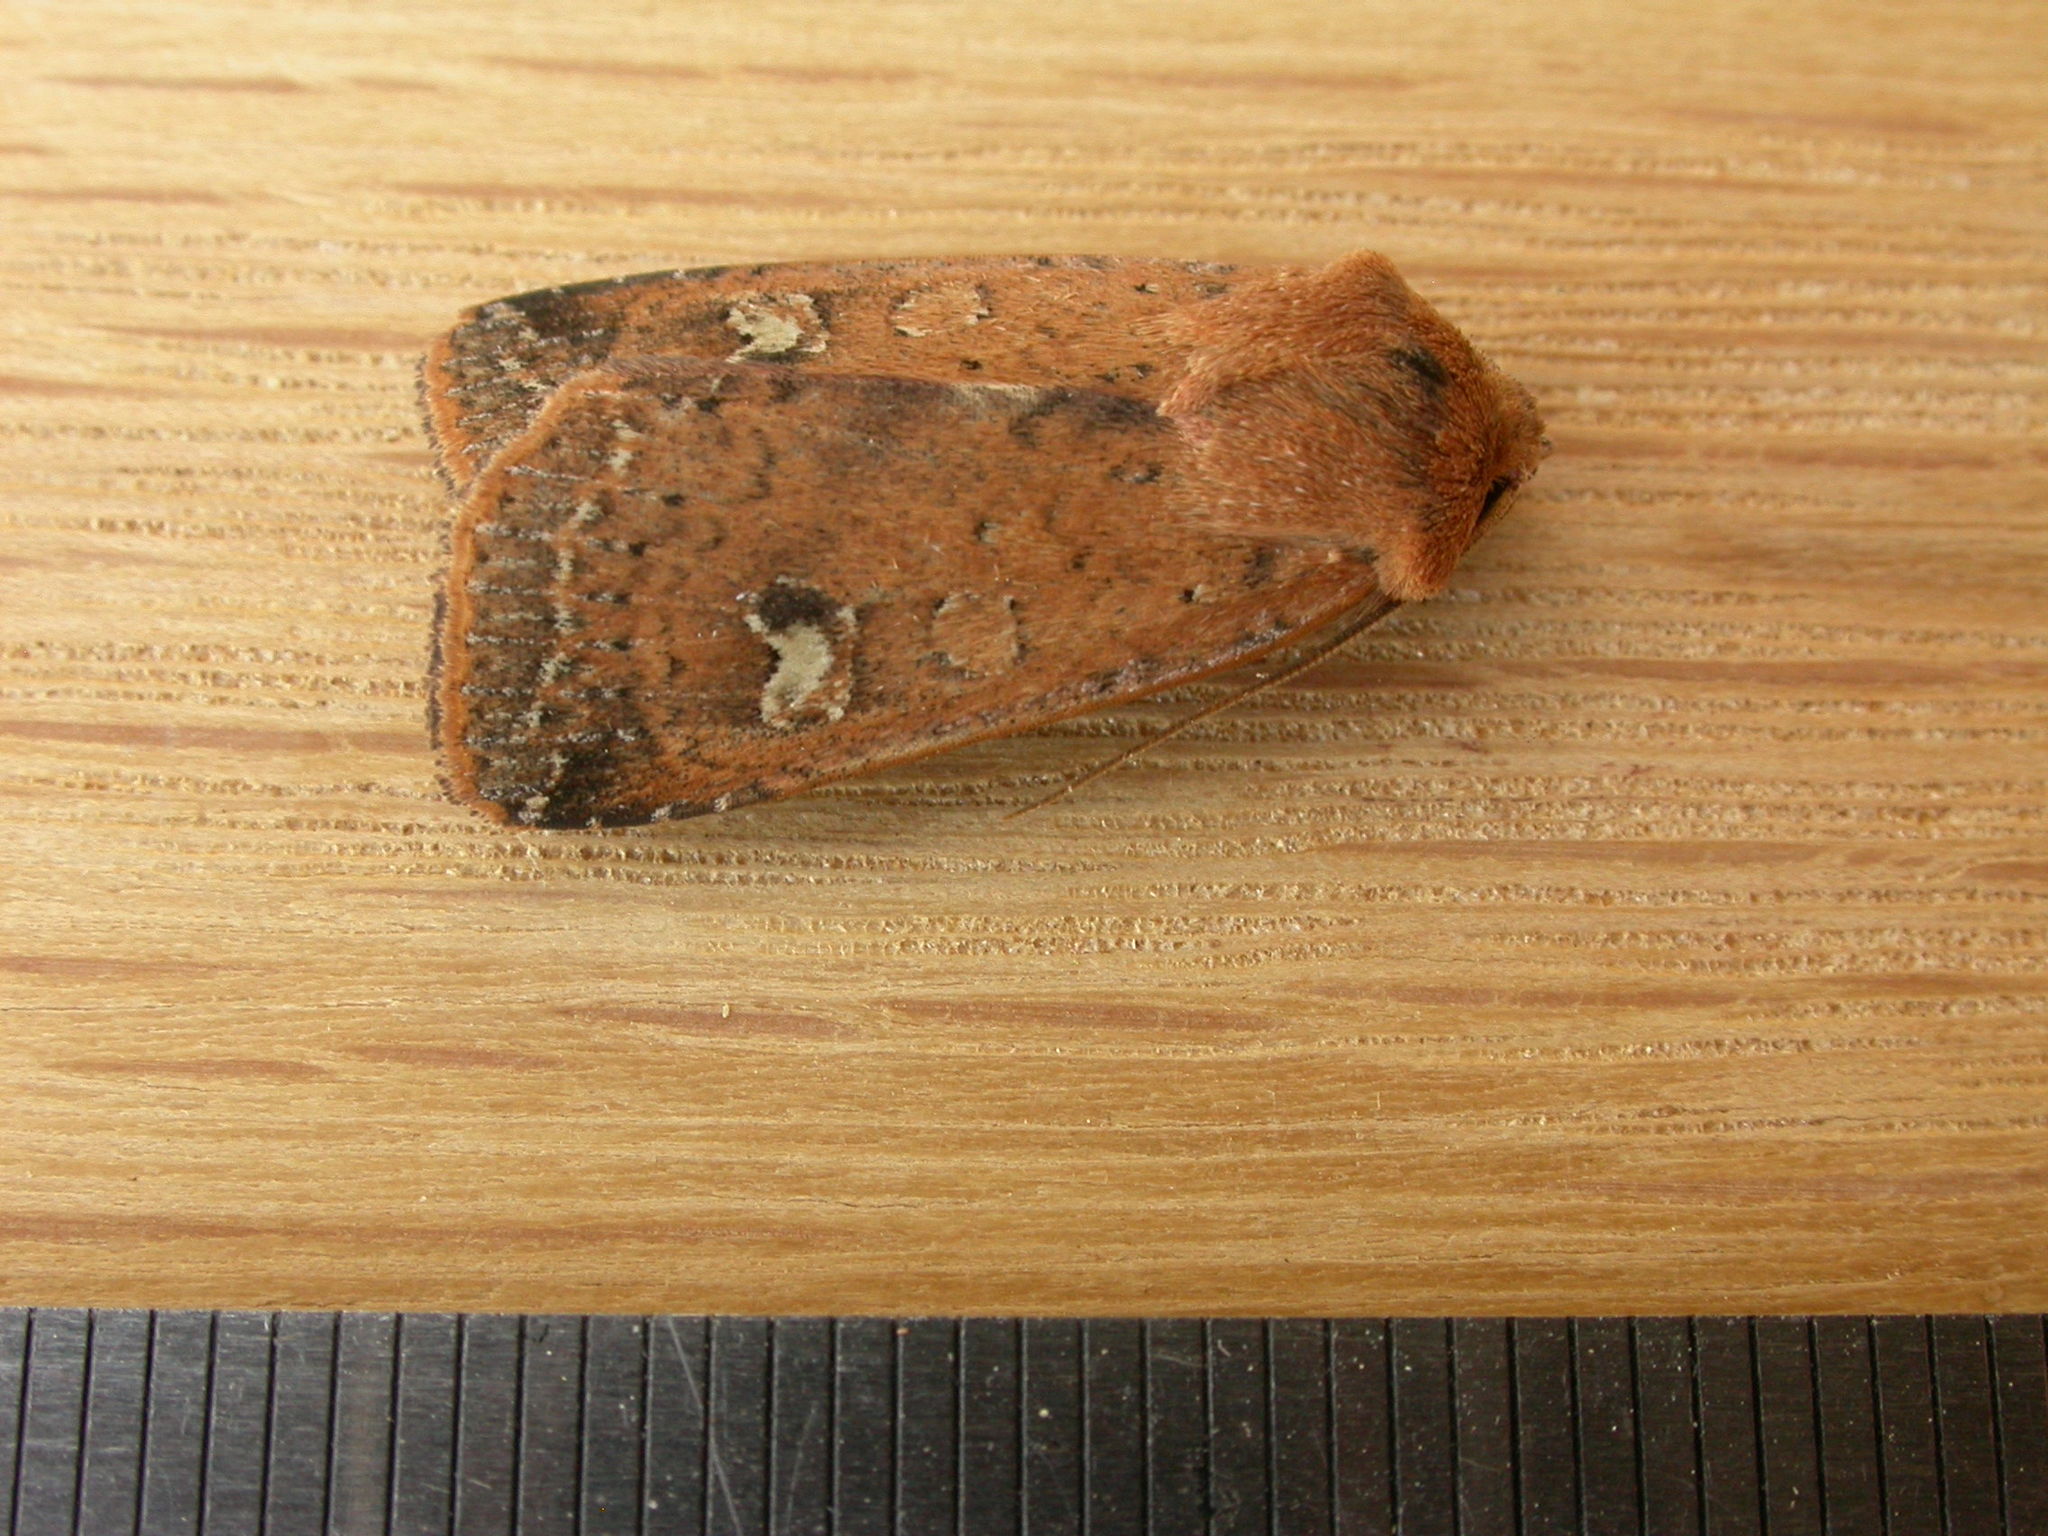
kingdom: Animalia
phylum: Arthropoda
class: Insecta
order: Lepidoptera
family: Noctuidae
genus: Diarsia
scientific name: Diarsia intermixta
